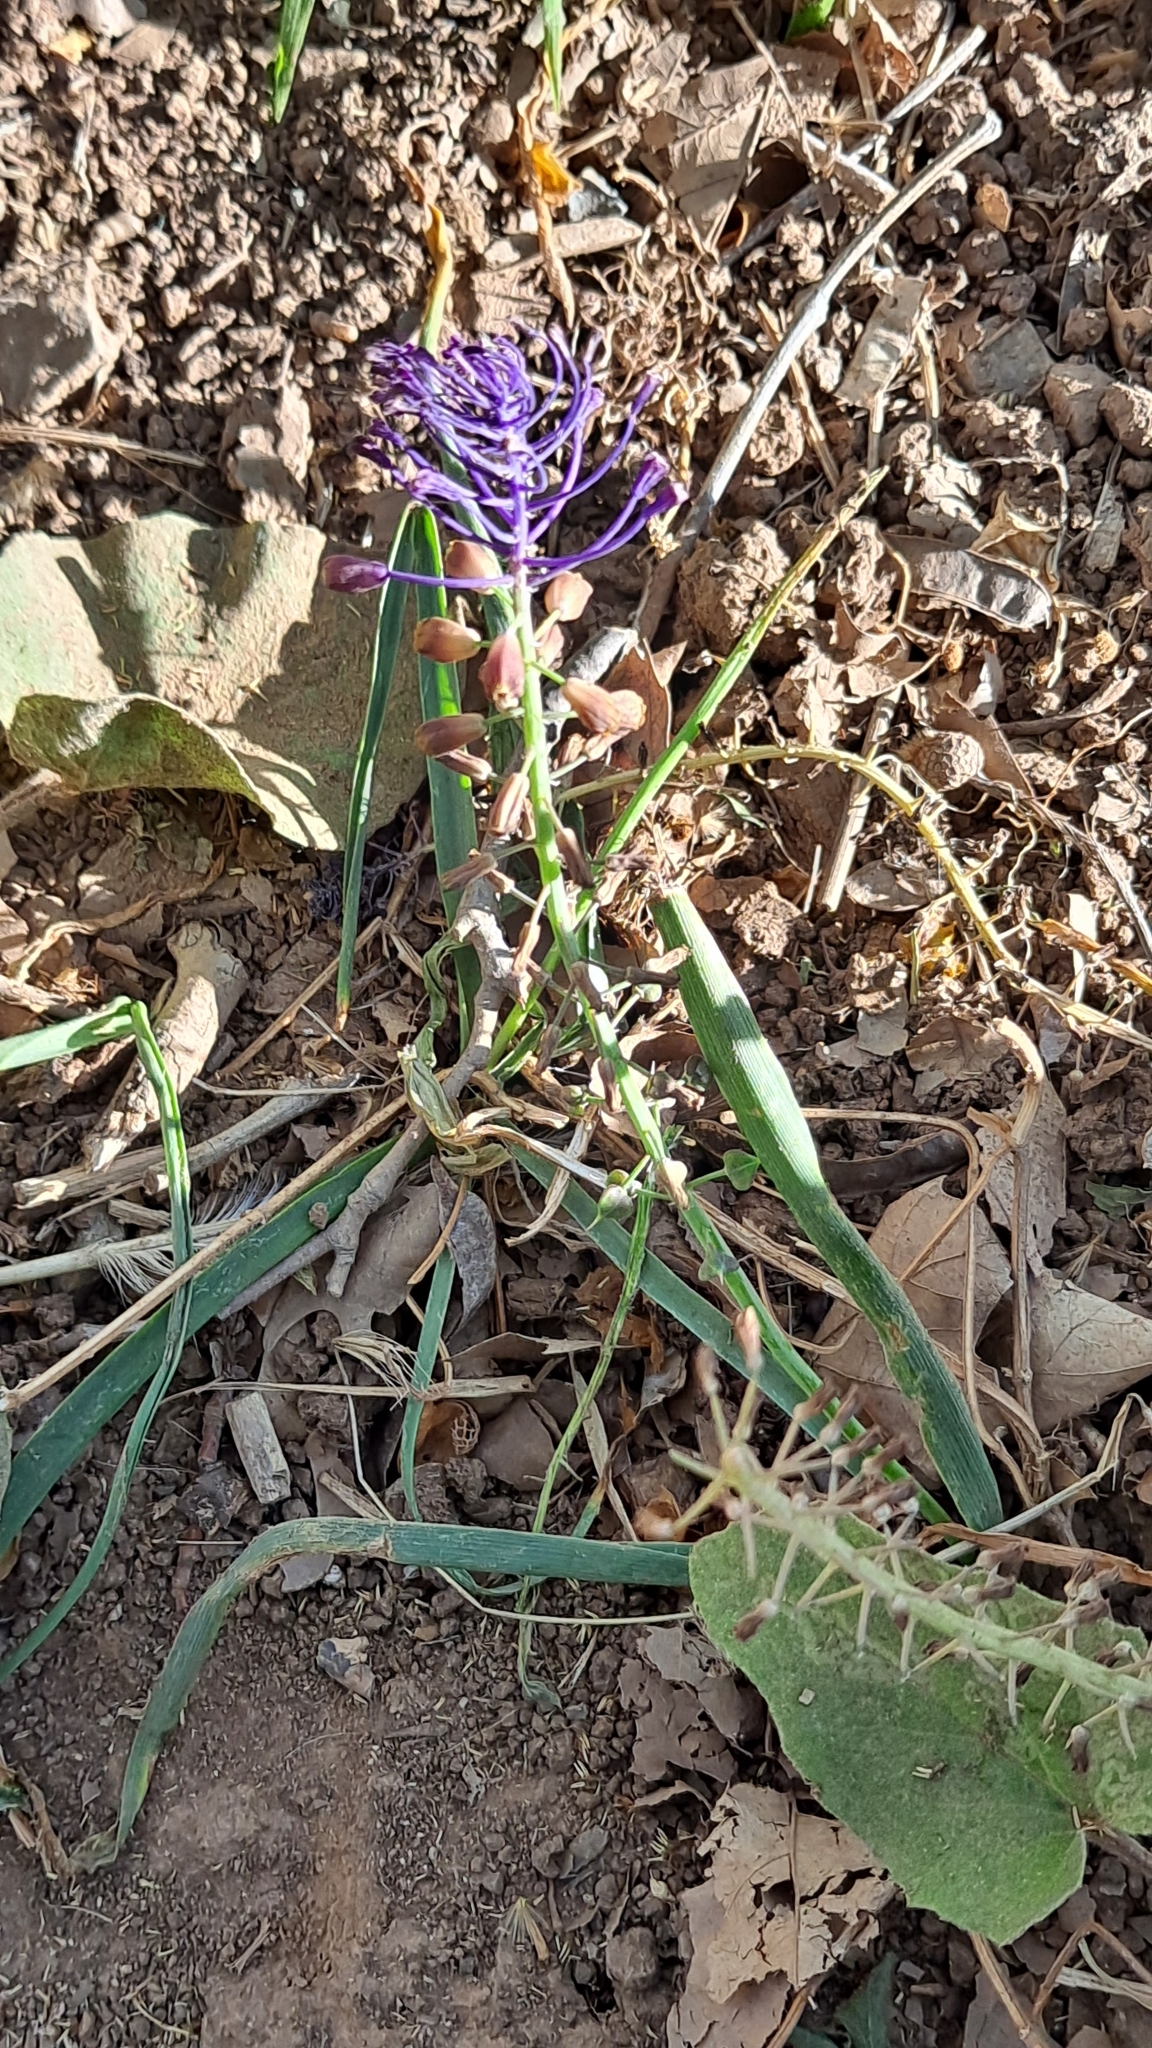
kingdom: Plantae
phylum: Tracheophyta
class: Liliopsida
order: Asparagales
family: Asparagaceae
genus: Muscari
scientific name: Muscari comosum
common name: Tassel hyacinth
